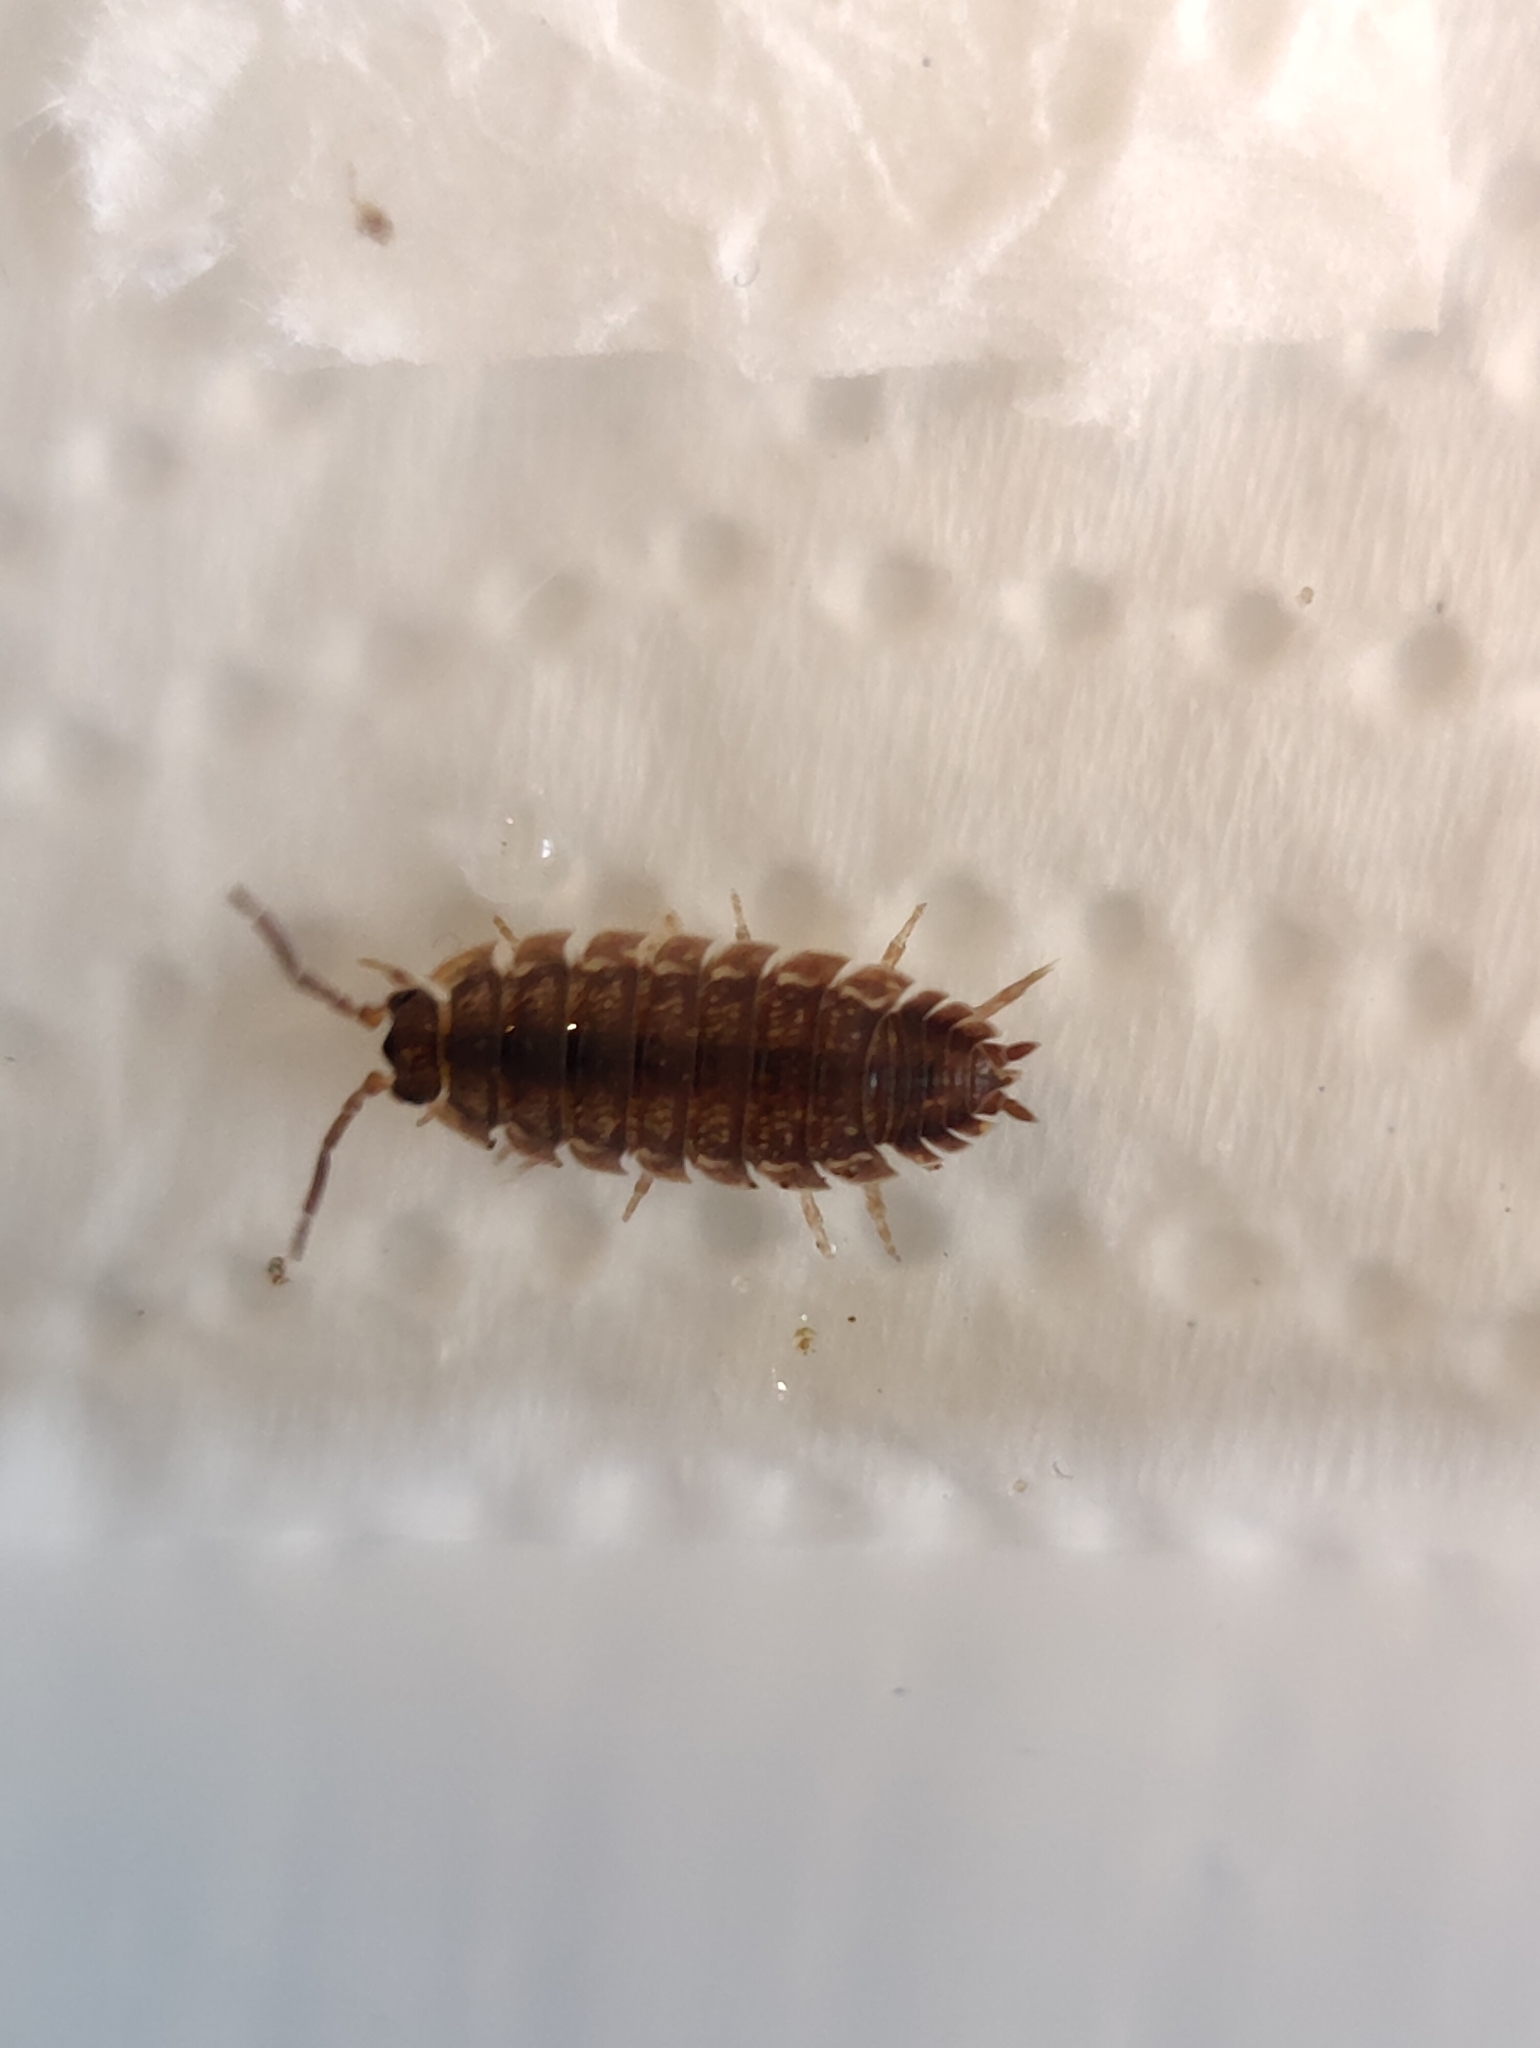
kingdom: Animalia
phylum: Arthropoda
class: Malacostraca
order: Isopoda
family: Porcellionidae
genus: Porcellio
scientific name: Porcellio scaber
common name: Common rough woodlouse
